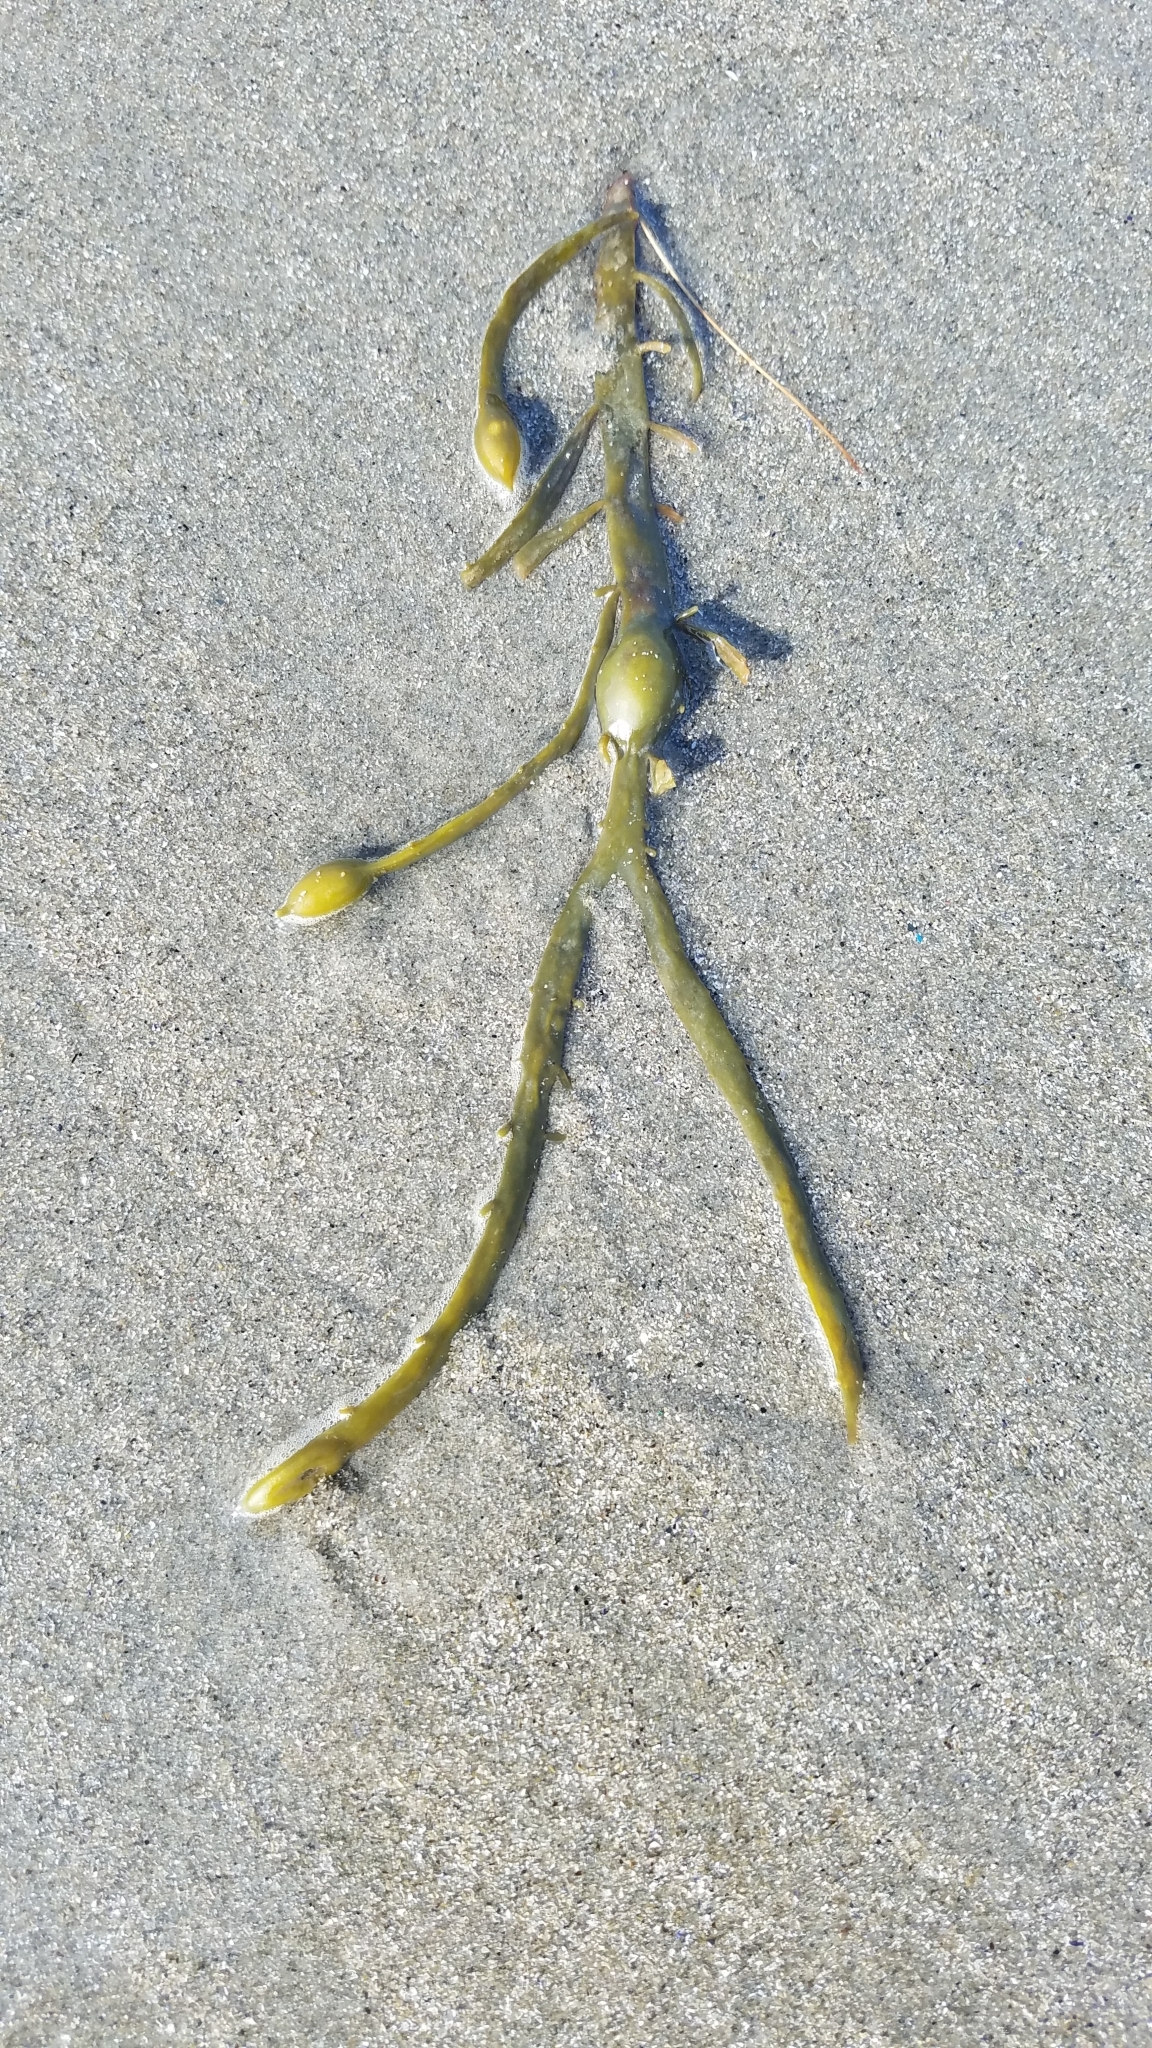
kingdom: Chromista
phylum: Ochrophyta
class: Phaeophyceae
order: Fucales
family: Fucaceae
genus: Ascophyllum
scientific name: Ascophyllum nodosum
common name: Knotted wrack
